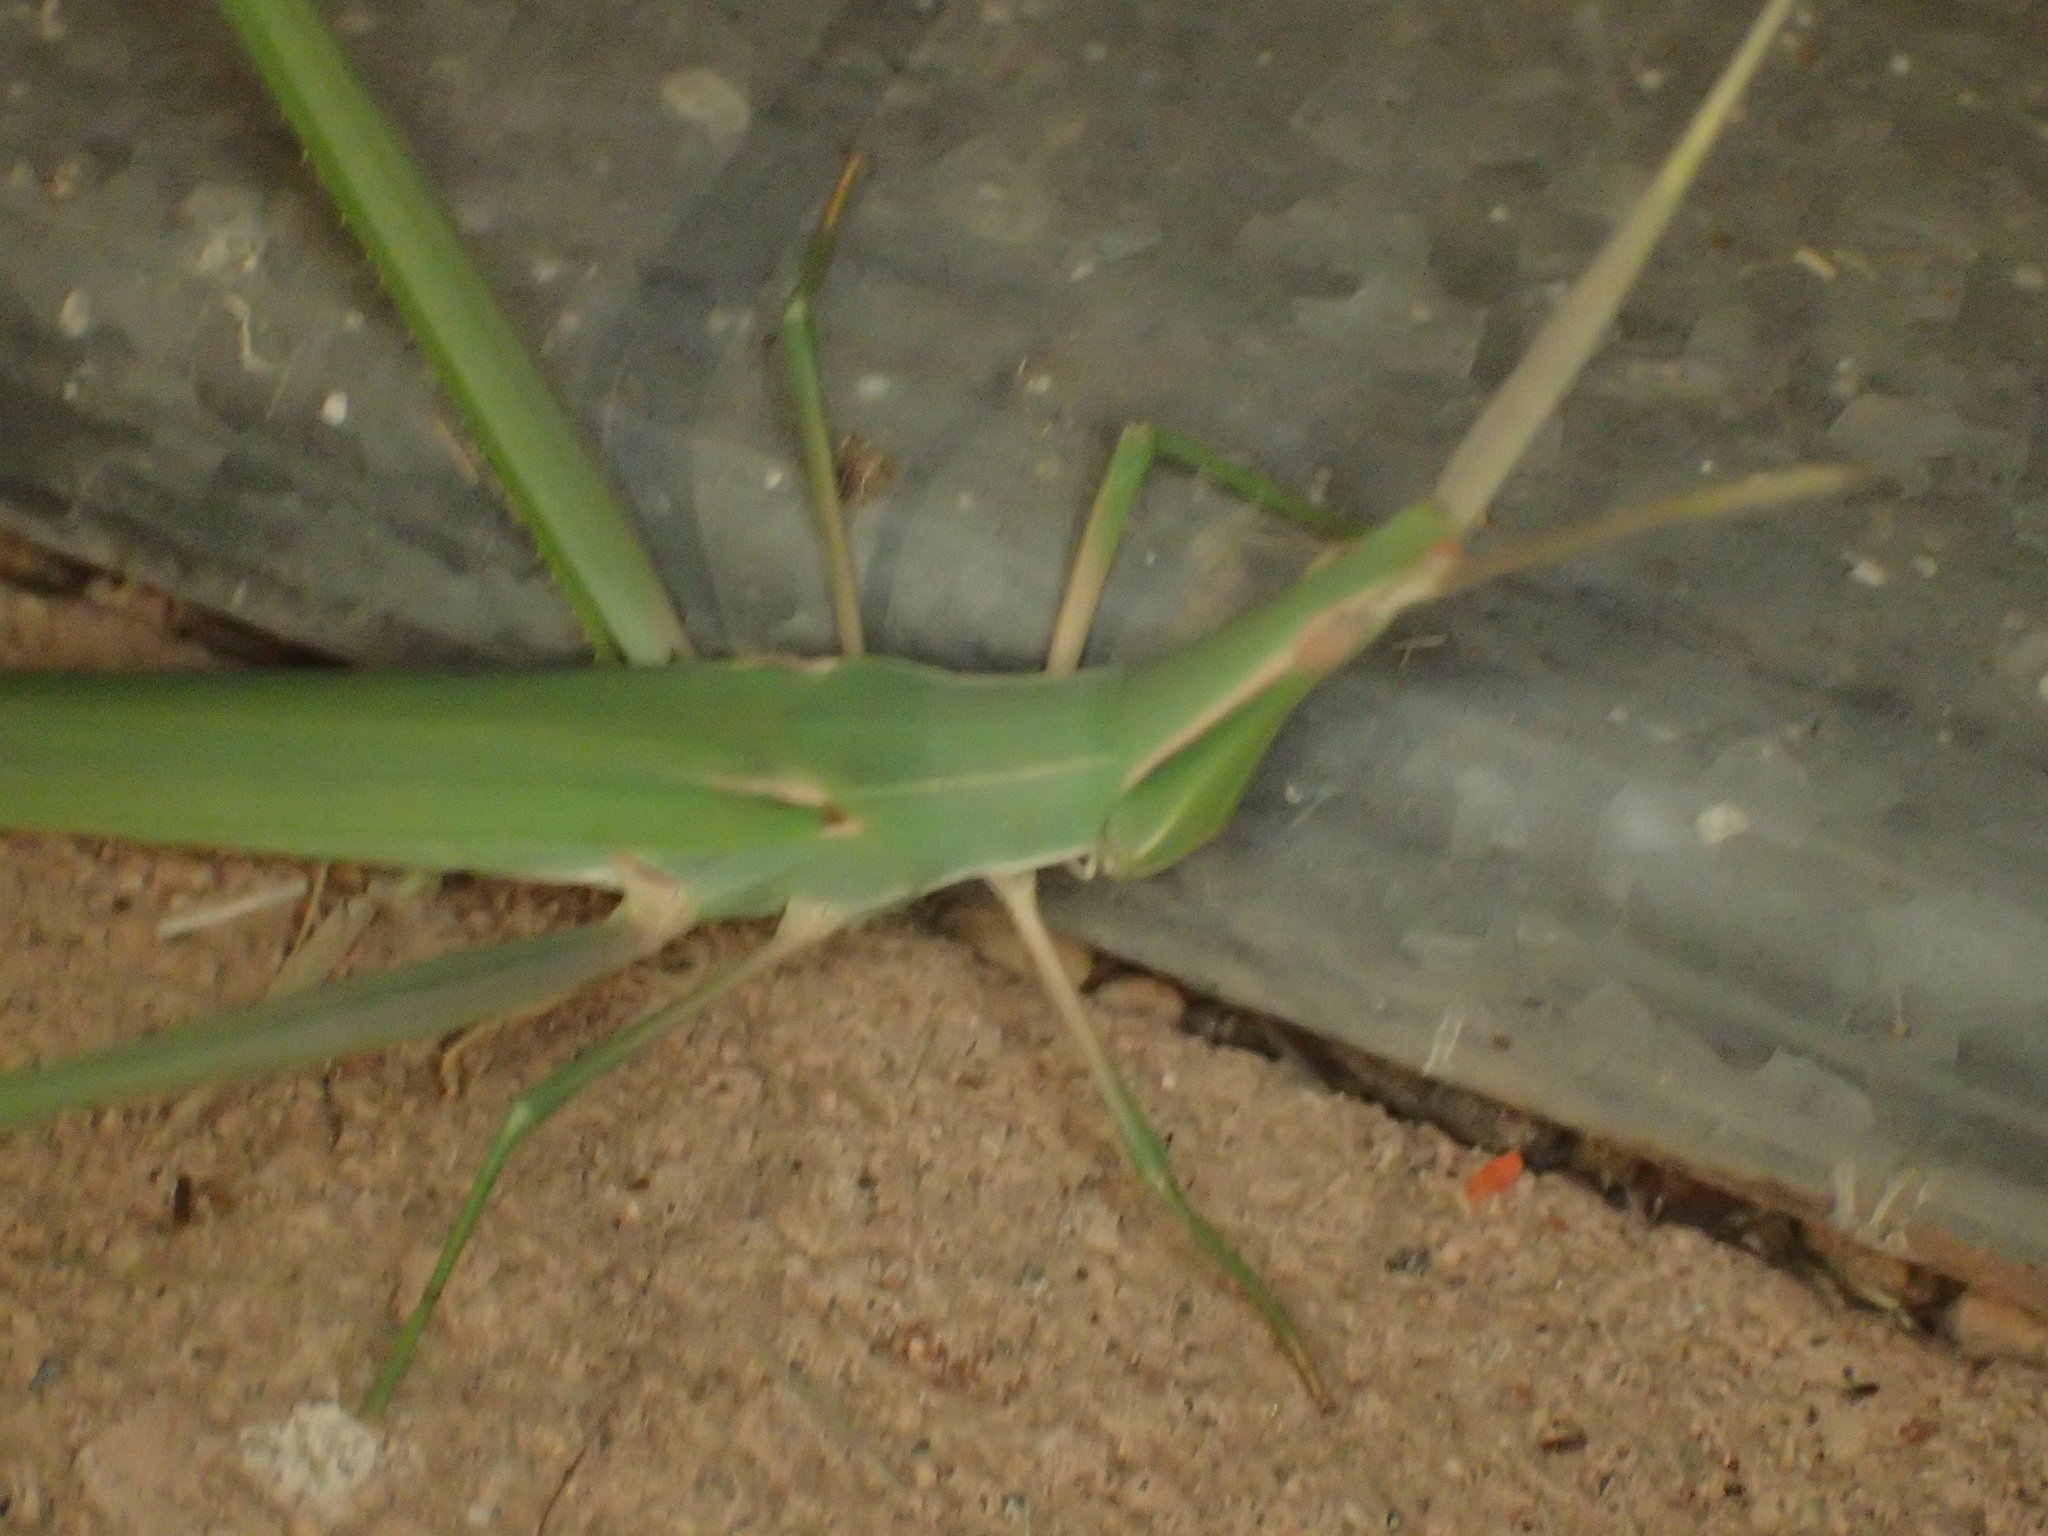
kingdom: Animalia
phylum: Arthropoda
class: Insecta
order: Orthoptera
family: Acrididae
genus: Acrida
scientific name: Acrida conica
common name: Giant green slantface
